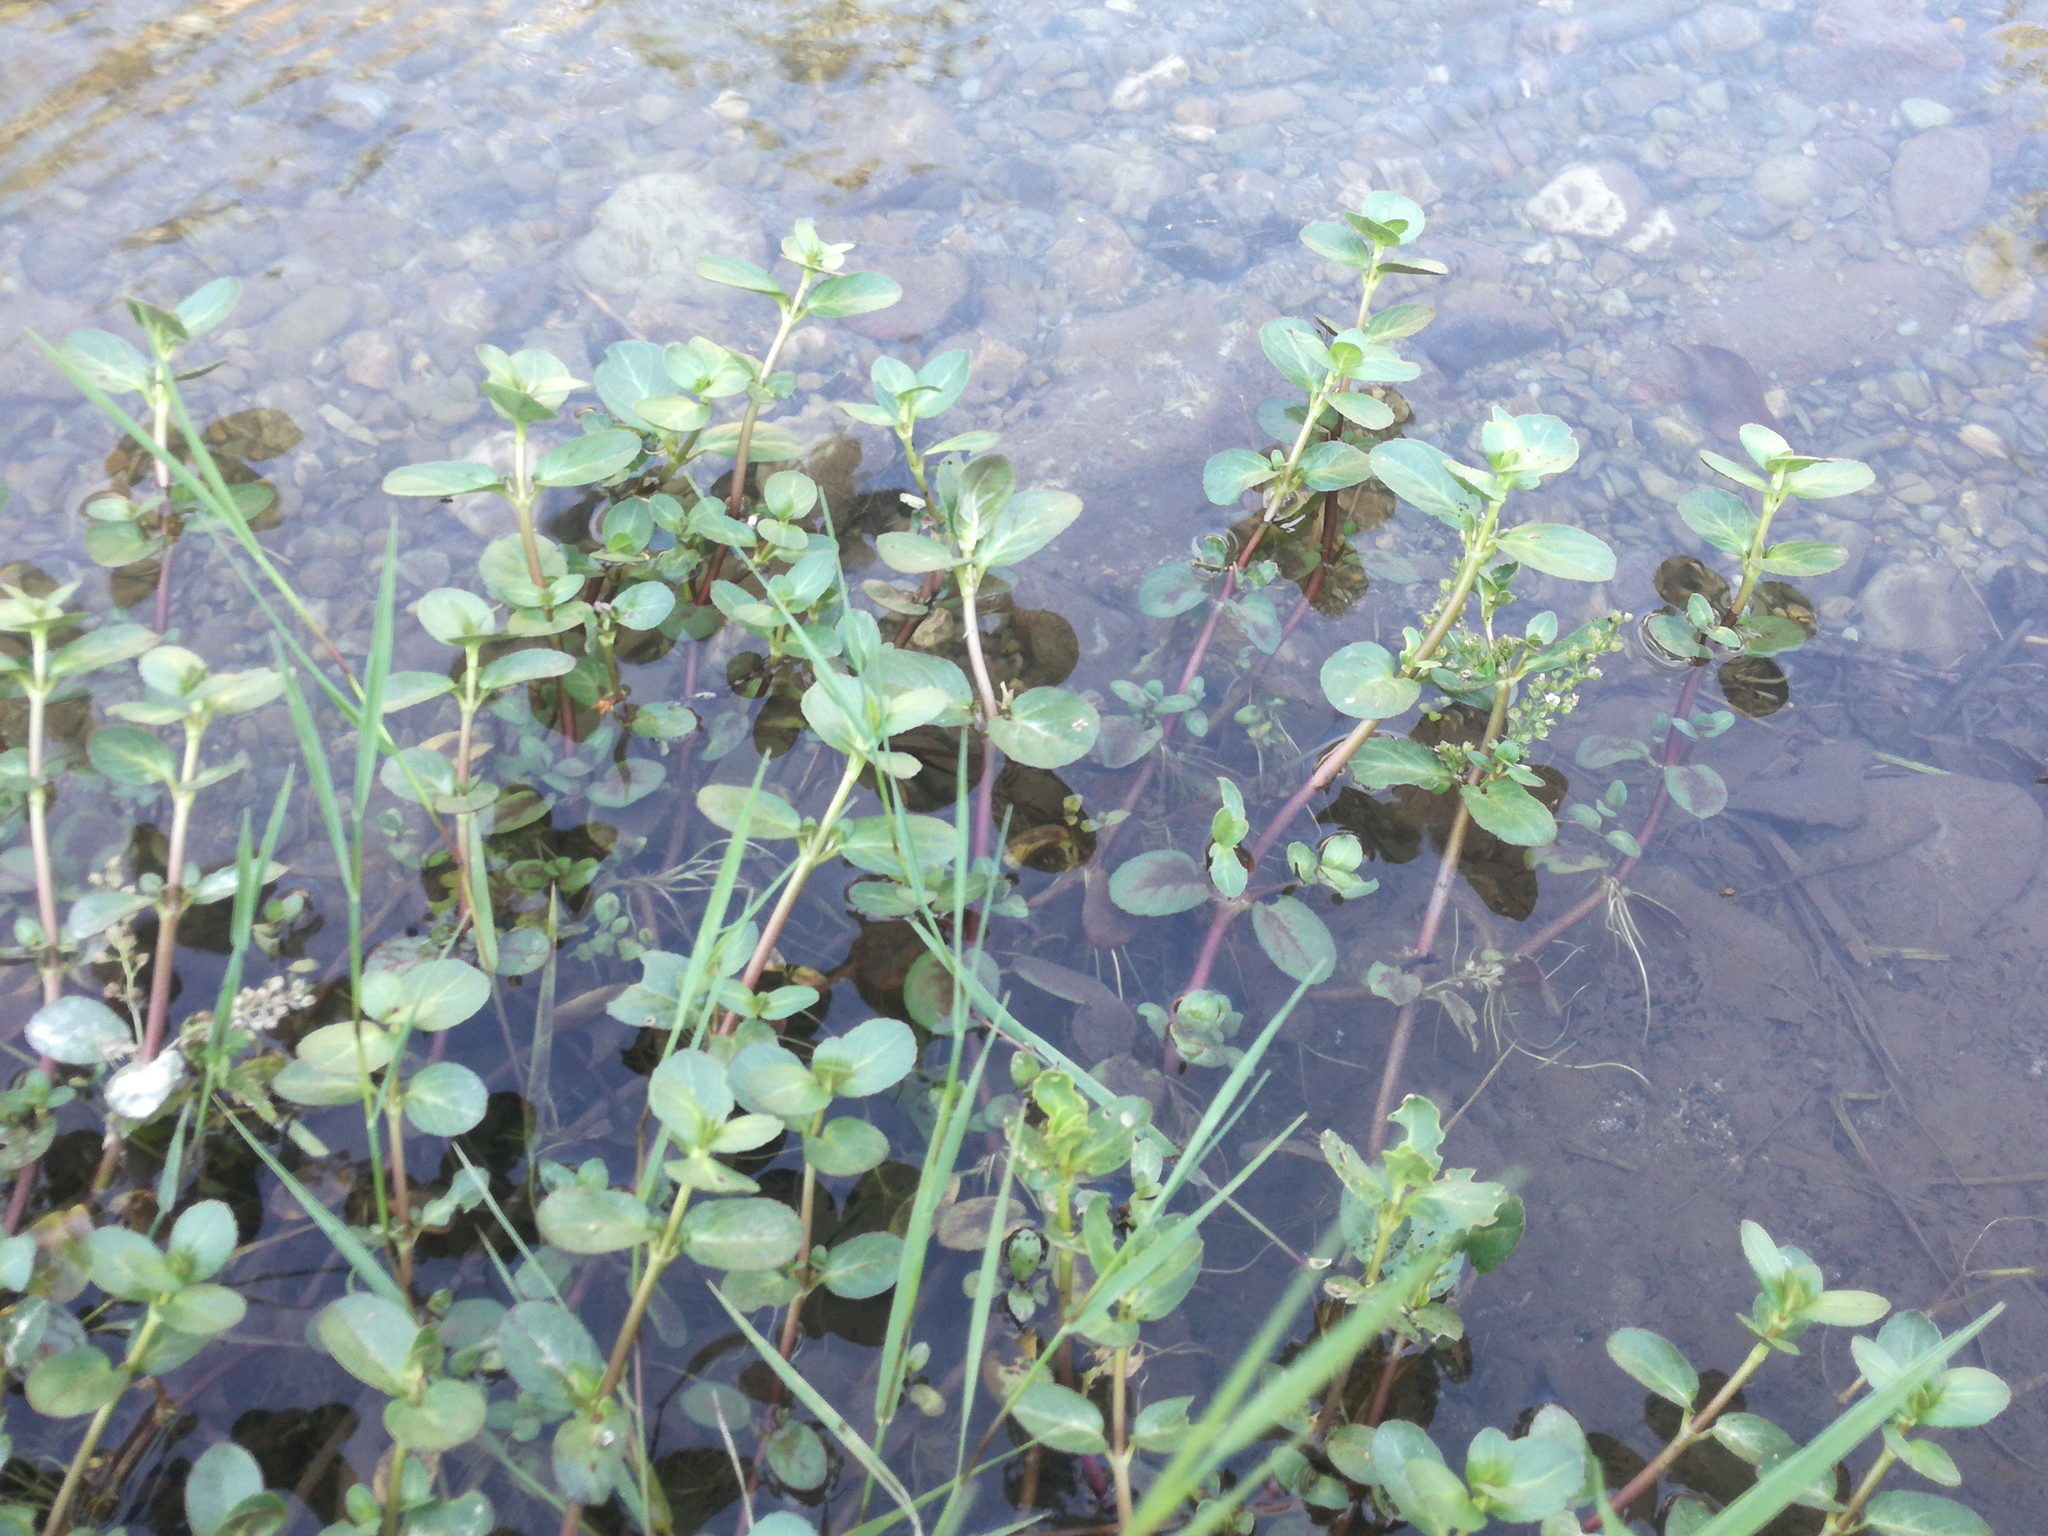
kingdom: Plantae
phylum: Tracheophyta
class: Magnoliopsida
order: Lamiales
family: Plantaginaceae
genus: Veronica
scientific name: Veronica beccabunga
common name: Brooklime
